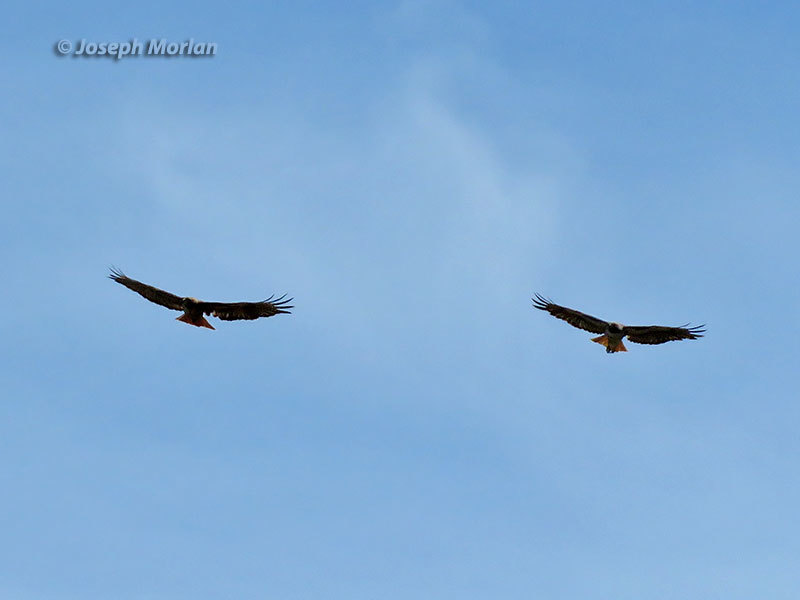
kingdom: Animalia
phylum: Chordata
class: Aves
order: Accipitriformes
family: Accipitridae
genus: Buteo
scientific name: Buteo jamaicensis
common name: Red-tailed hawk
